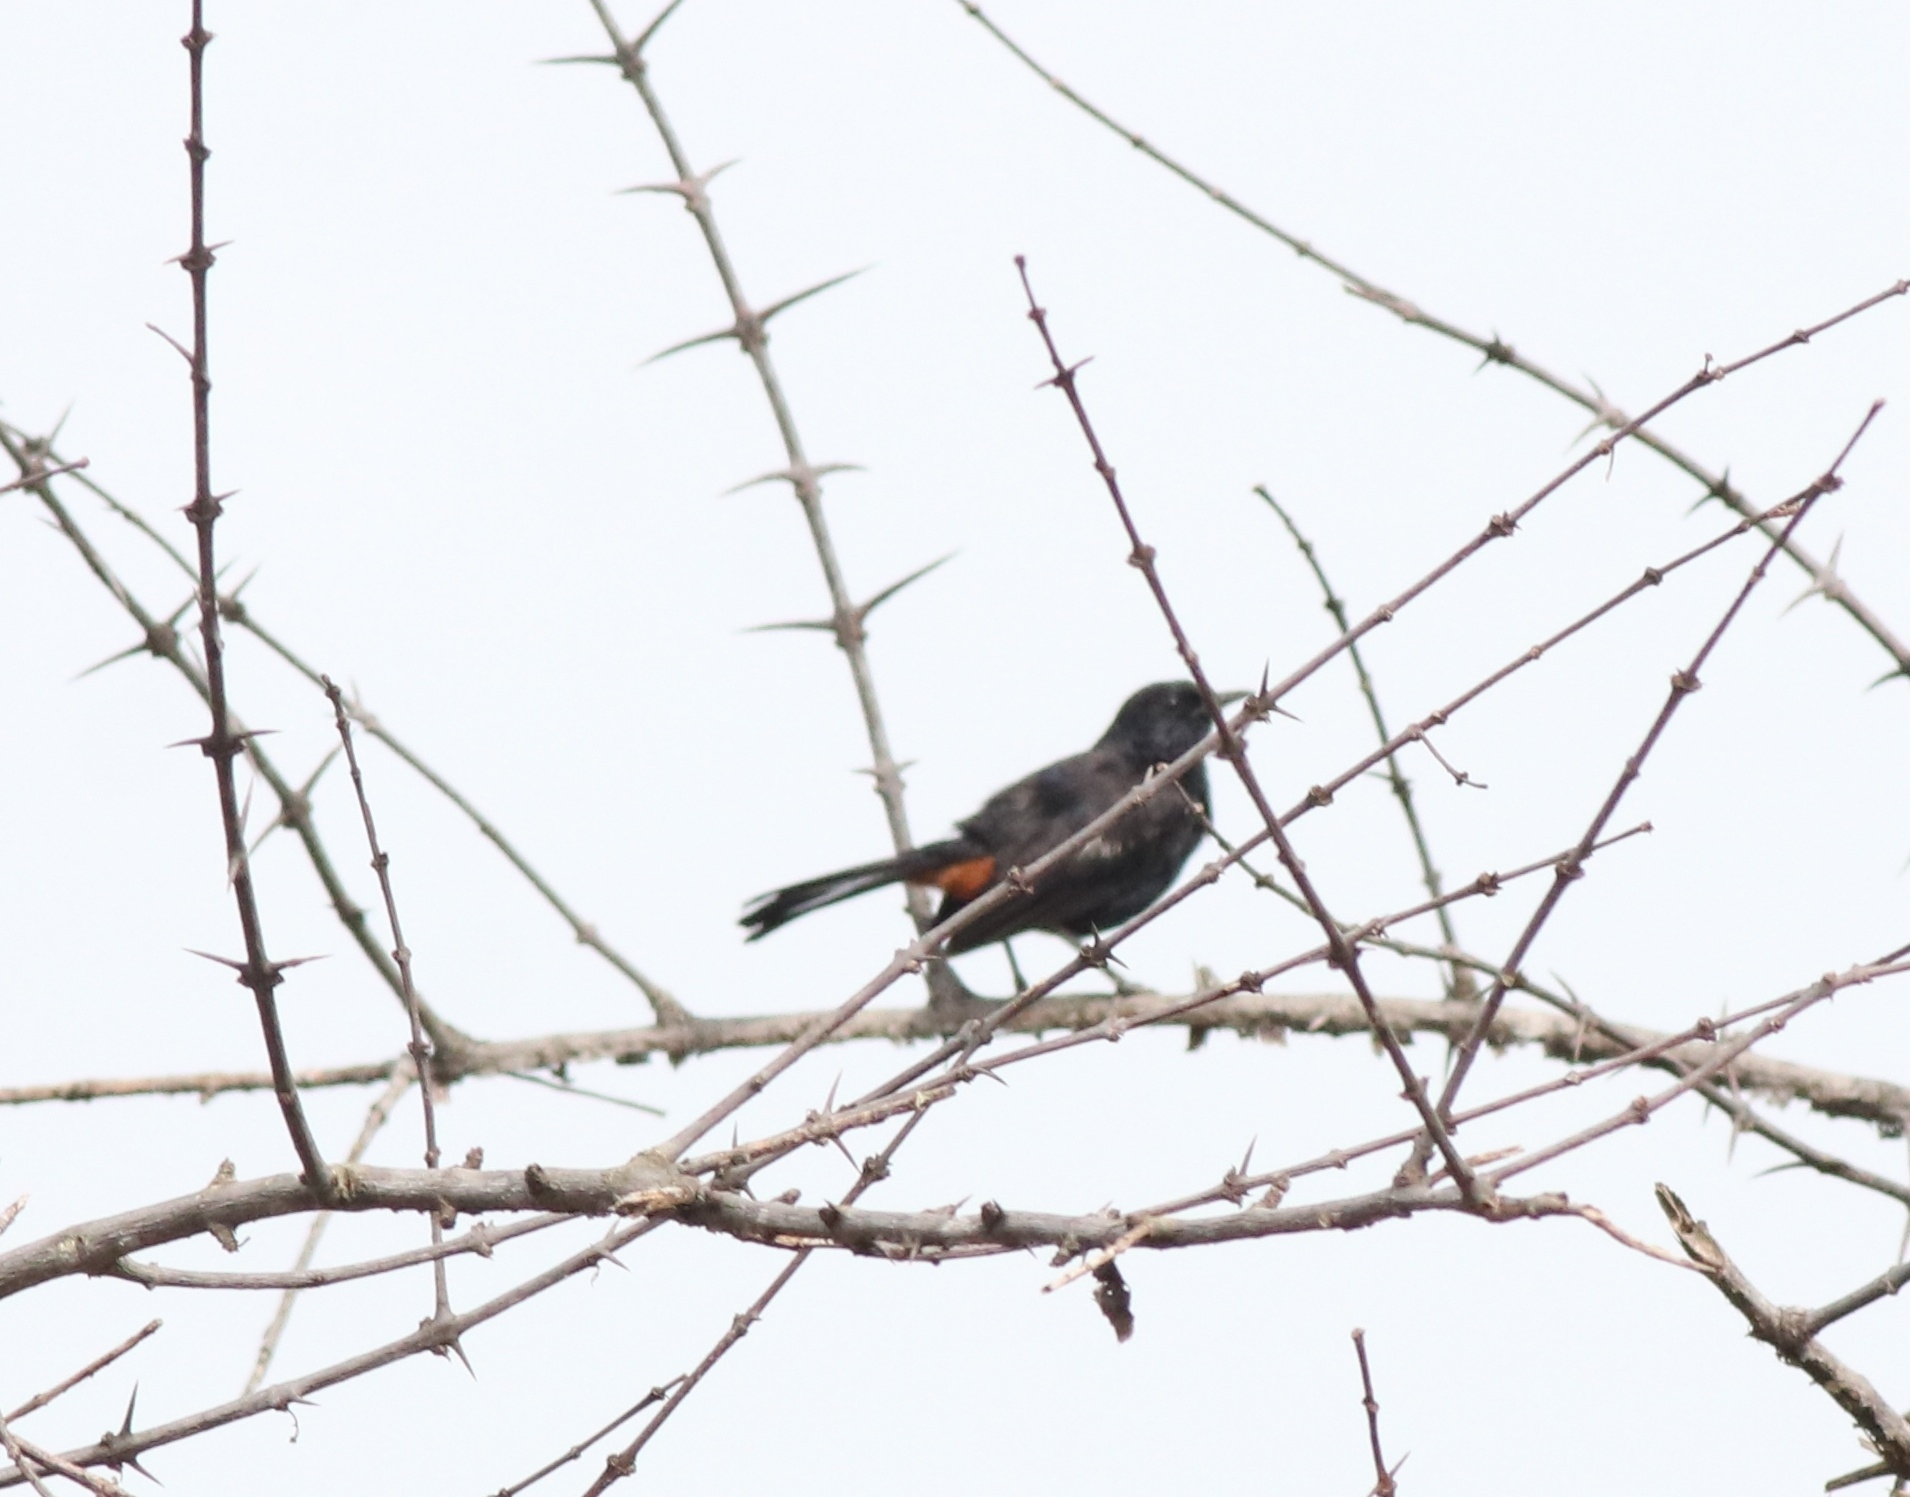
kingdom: Animalia
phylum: Chordata
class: Aves
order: Passeriformes
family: Muscicapidae
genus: Saxicoloides
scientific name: Saxicoloides fulicatus
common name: Indian robin
